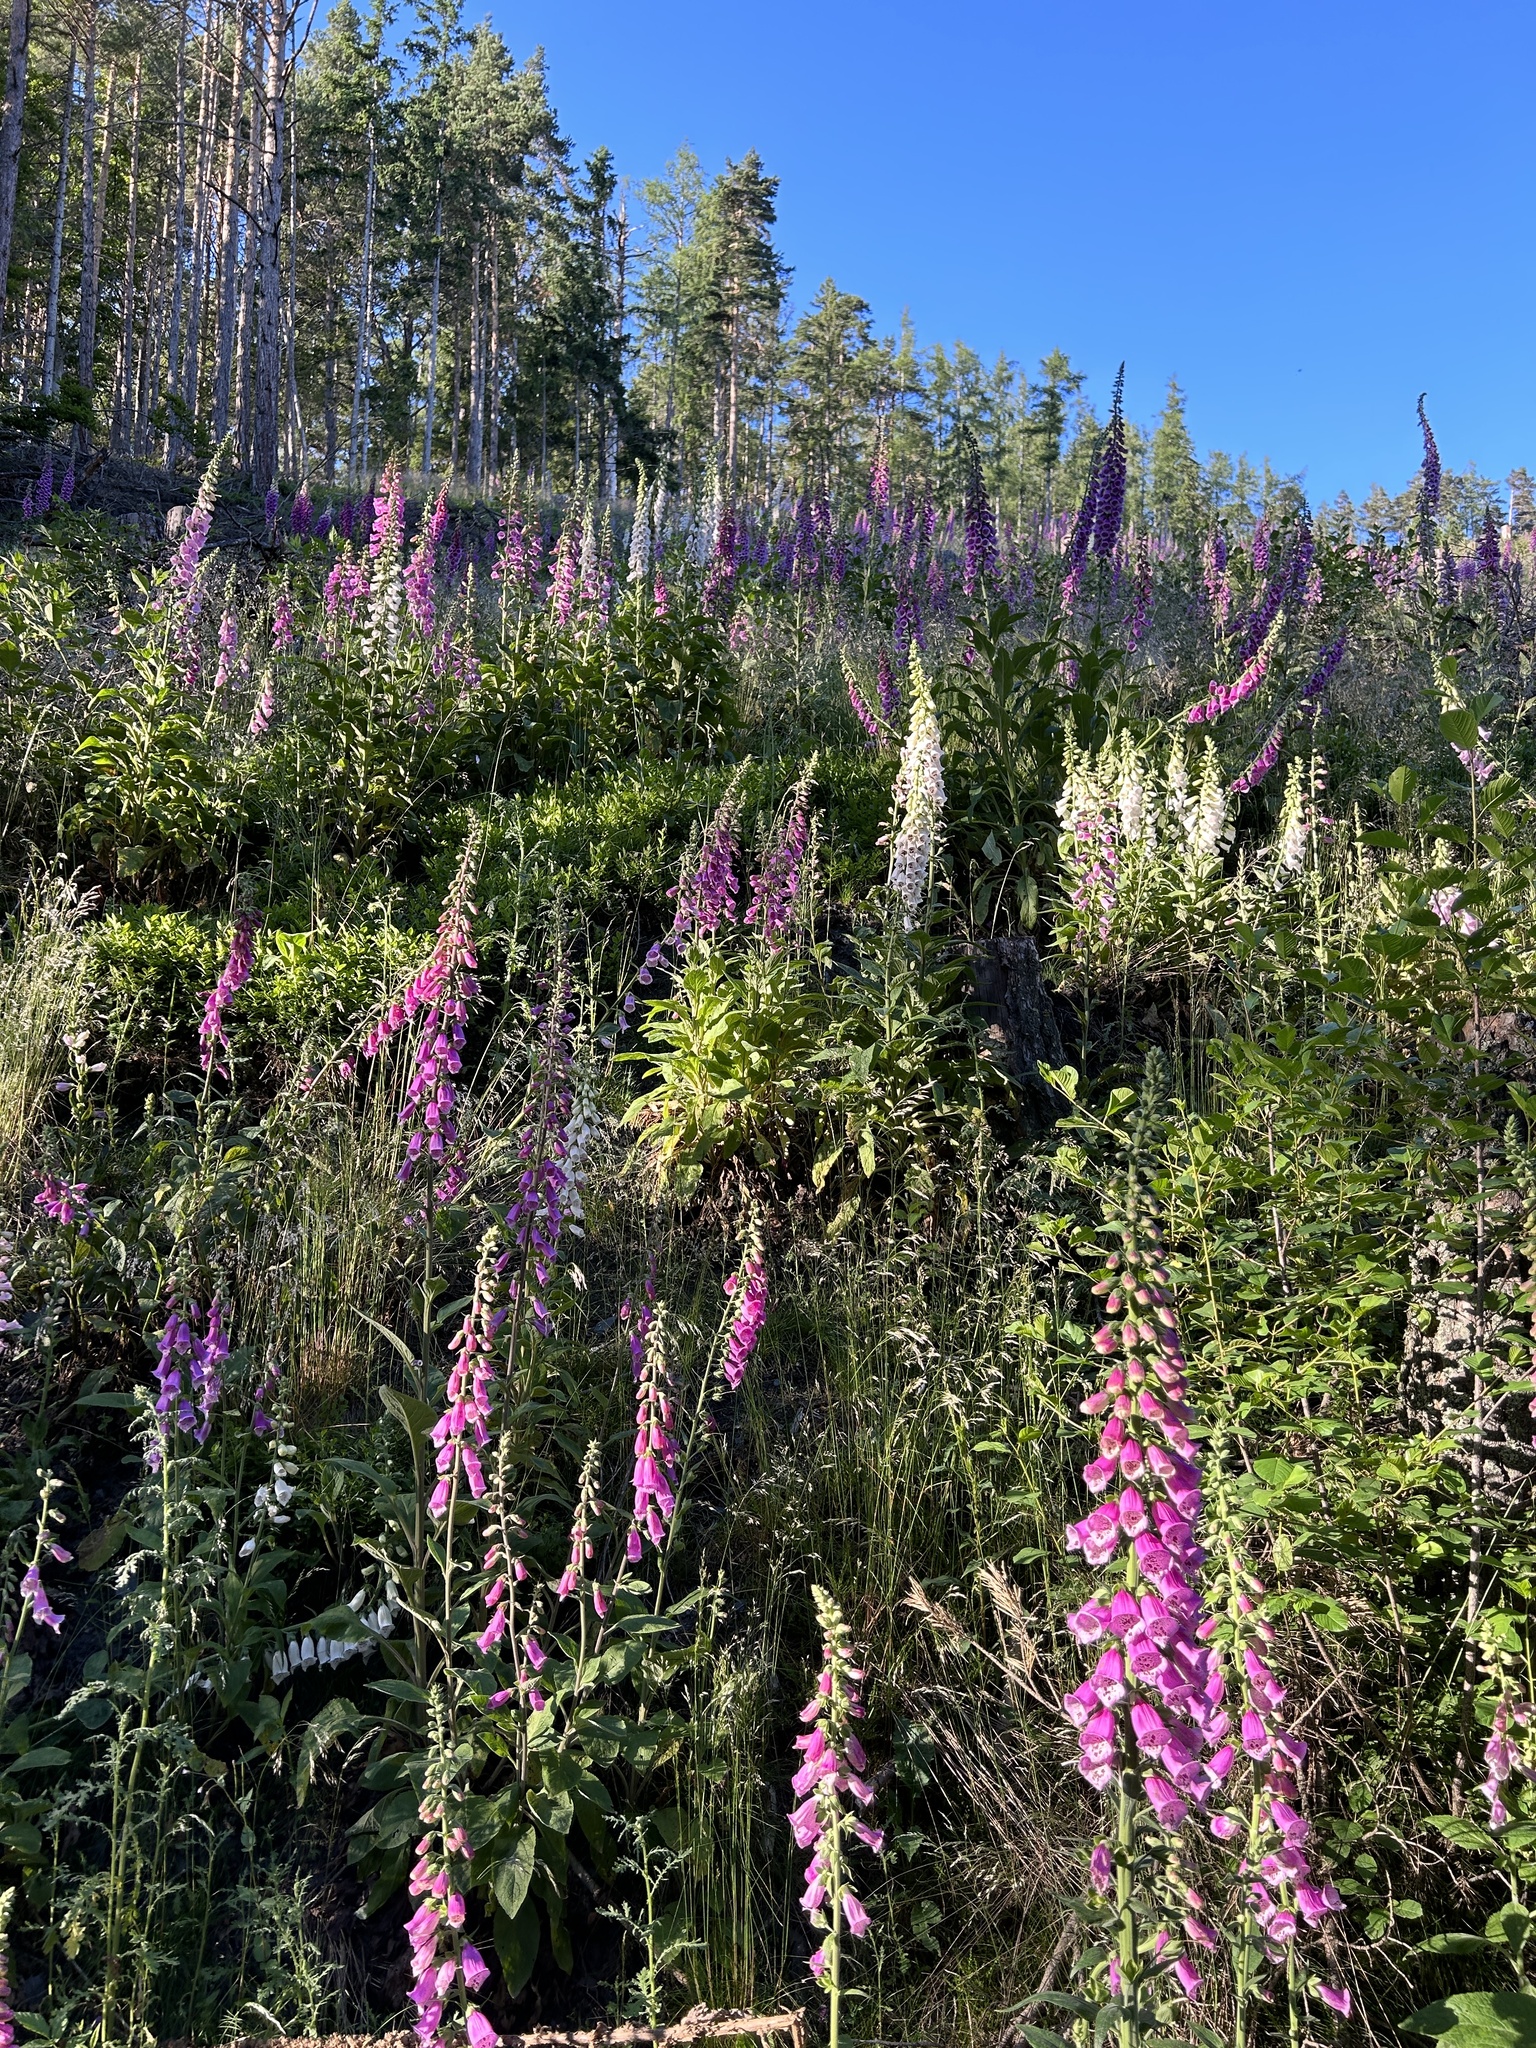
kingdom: Plantae
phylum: Tracheophyta
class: Magnoliopsida
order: Lamiales
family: Plantaginaceae
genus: Digitalis
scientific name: Digitalis purpurea
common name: Foxglove
